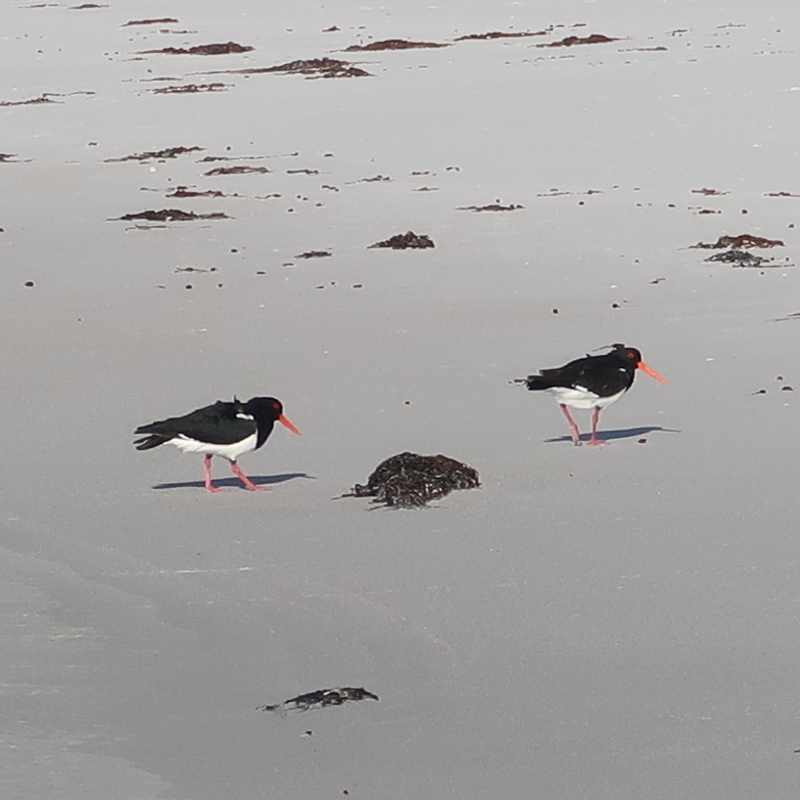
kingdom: Animalia
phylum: Chordata
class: Aves
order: Charadriiformes
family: Haematopodidae
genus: Haematopus
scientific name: Haematopus longirostris
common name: Pied oystercatcher
